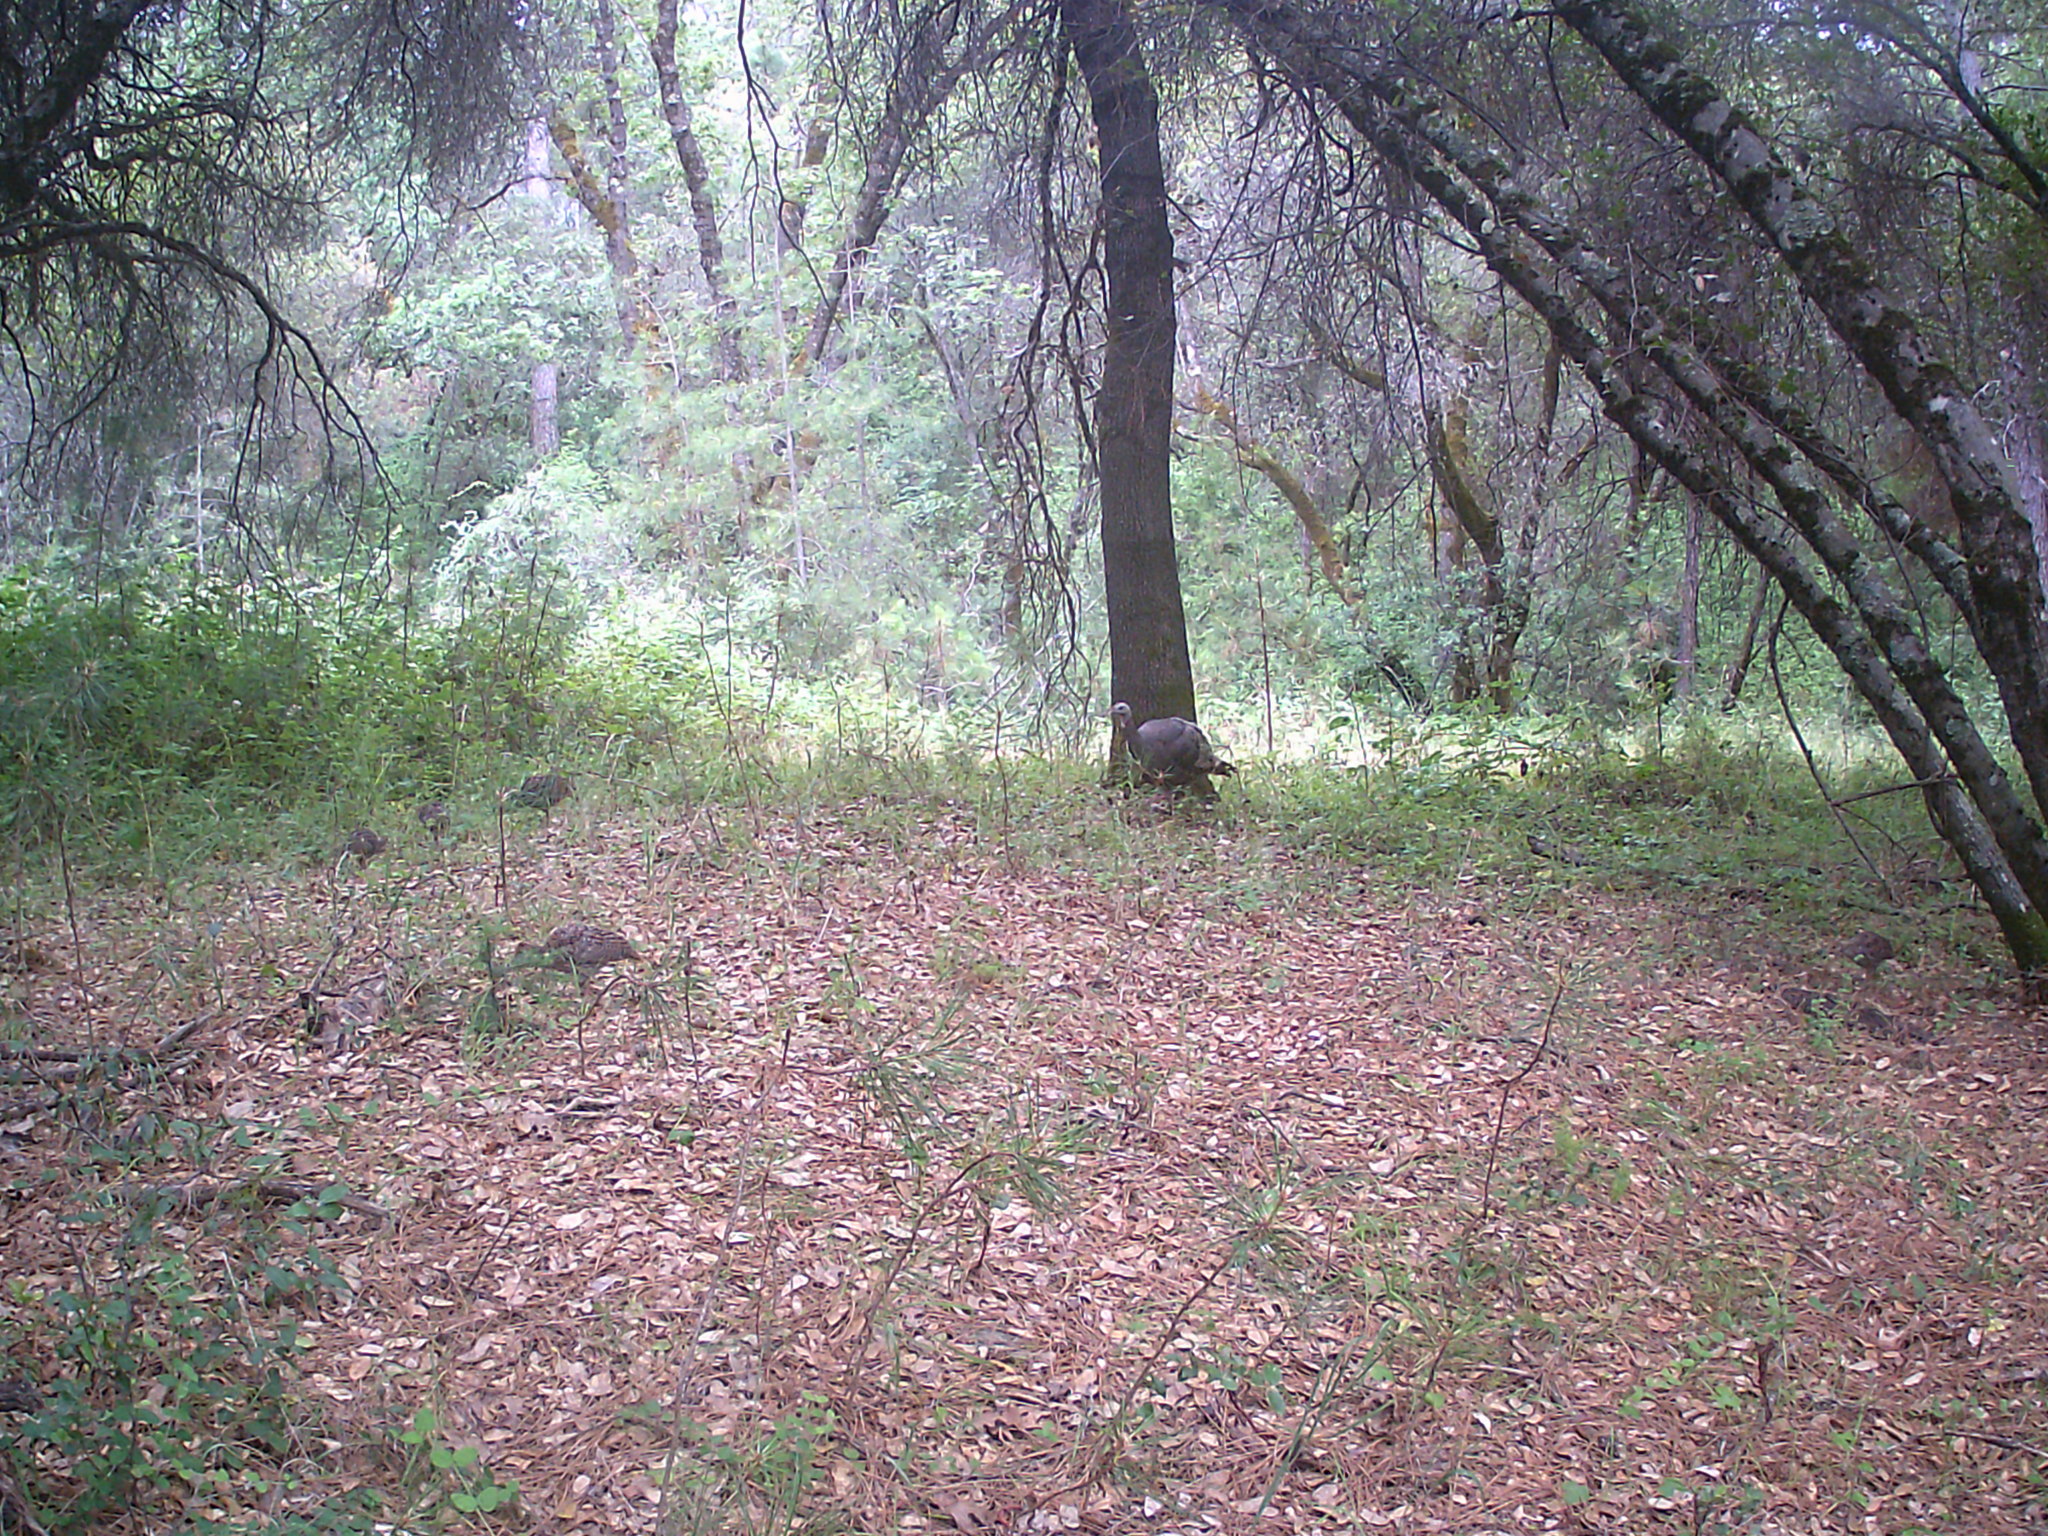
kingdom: Animalia
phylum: Chordata
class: Aves
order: Galliformes
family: Phasianidae
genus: Meleagris
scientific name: Meleagris gallopavo
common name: Wild turkey
